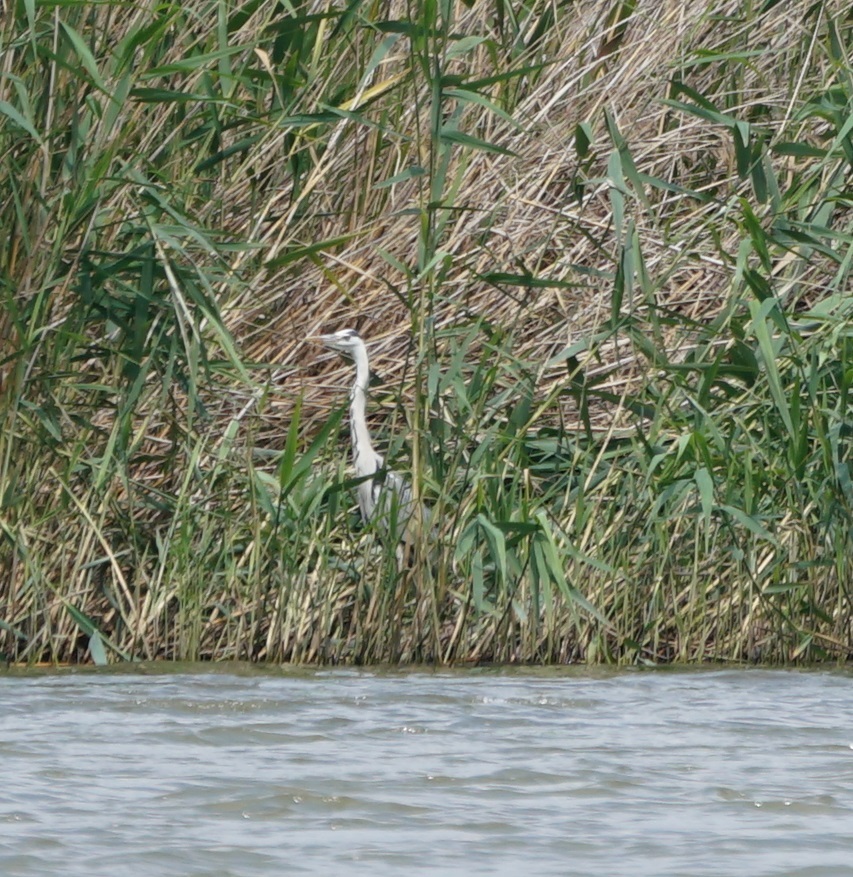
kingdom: Animalia
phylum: Chordata
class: Aves
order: Pelecaniformes
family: Ardeidae
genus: Ardea
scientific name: Ardea cinerea
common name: Grey heron
